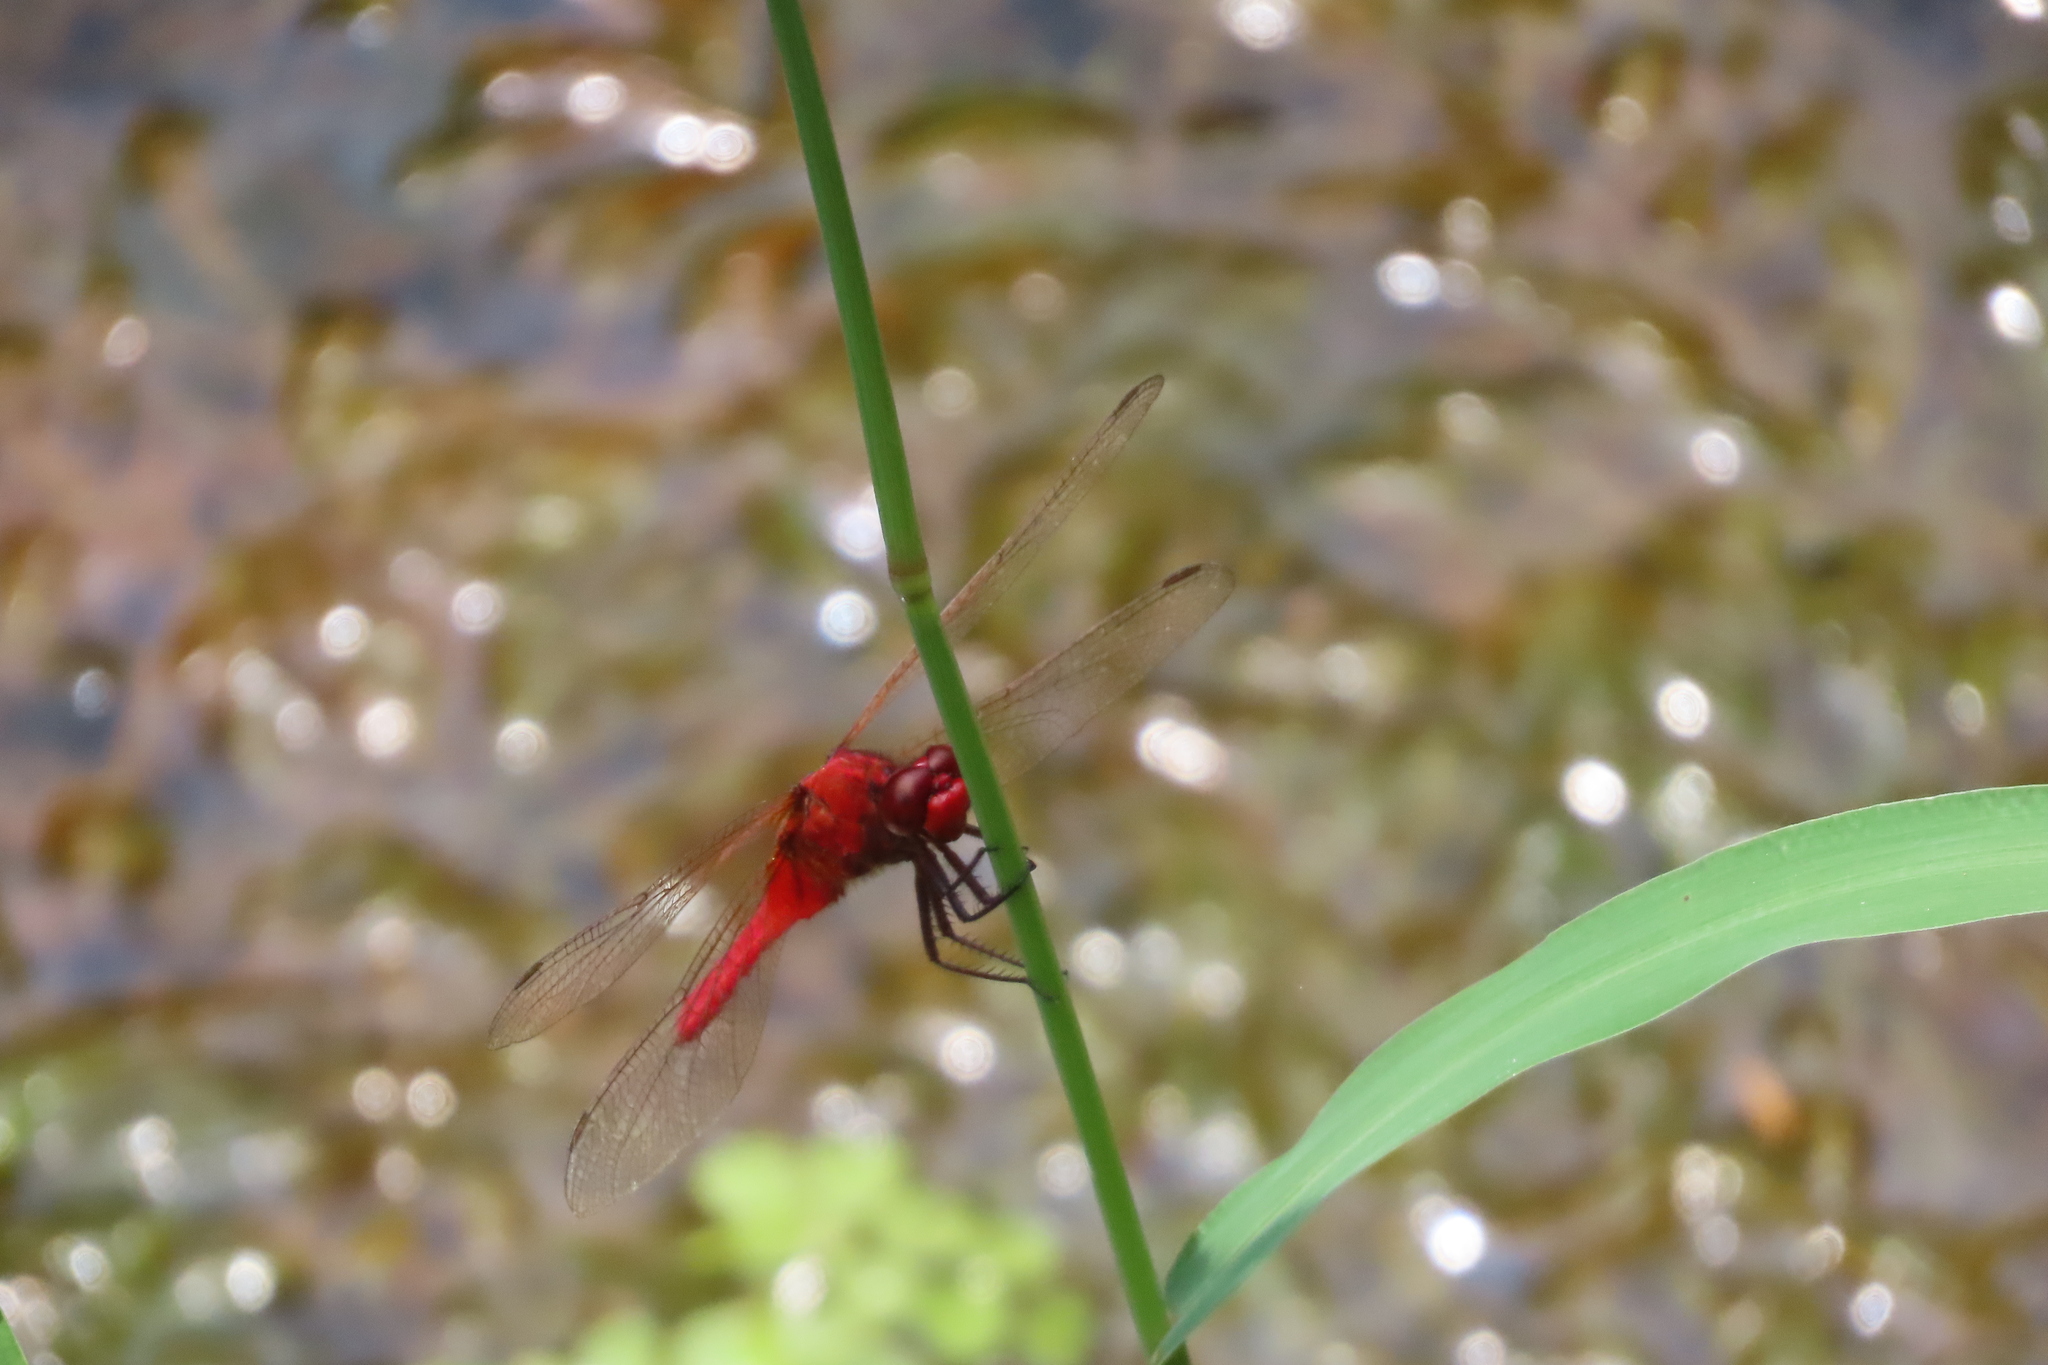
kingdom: Animalia
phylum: Arthropoda
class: Insecta
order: Odonata
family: Libellulidae
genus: Rhodothemis
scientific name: Rhodothemis rufa
